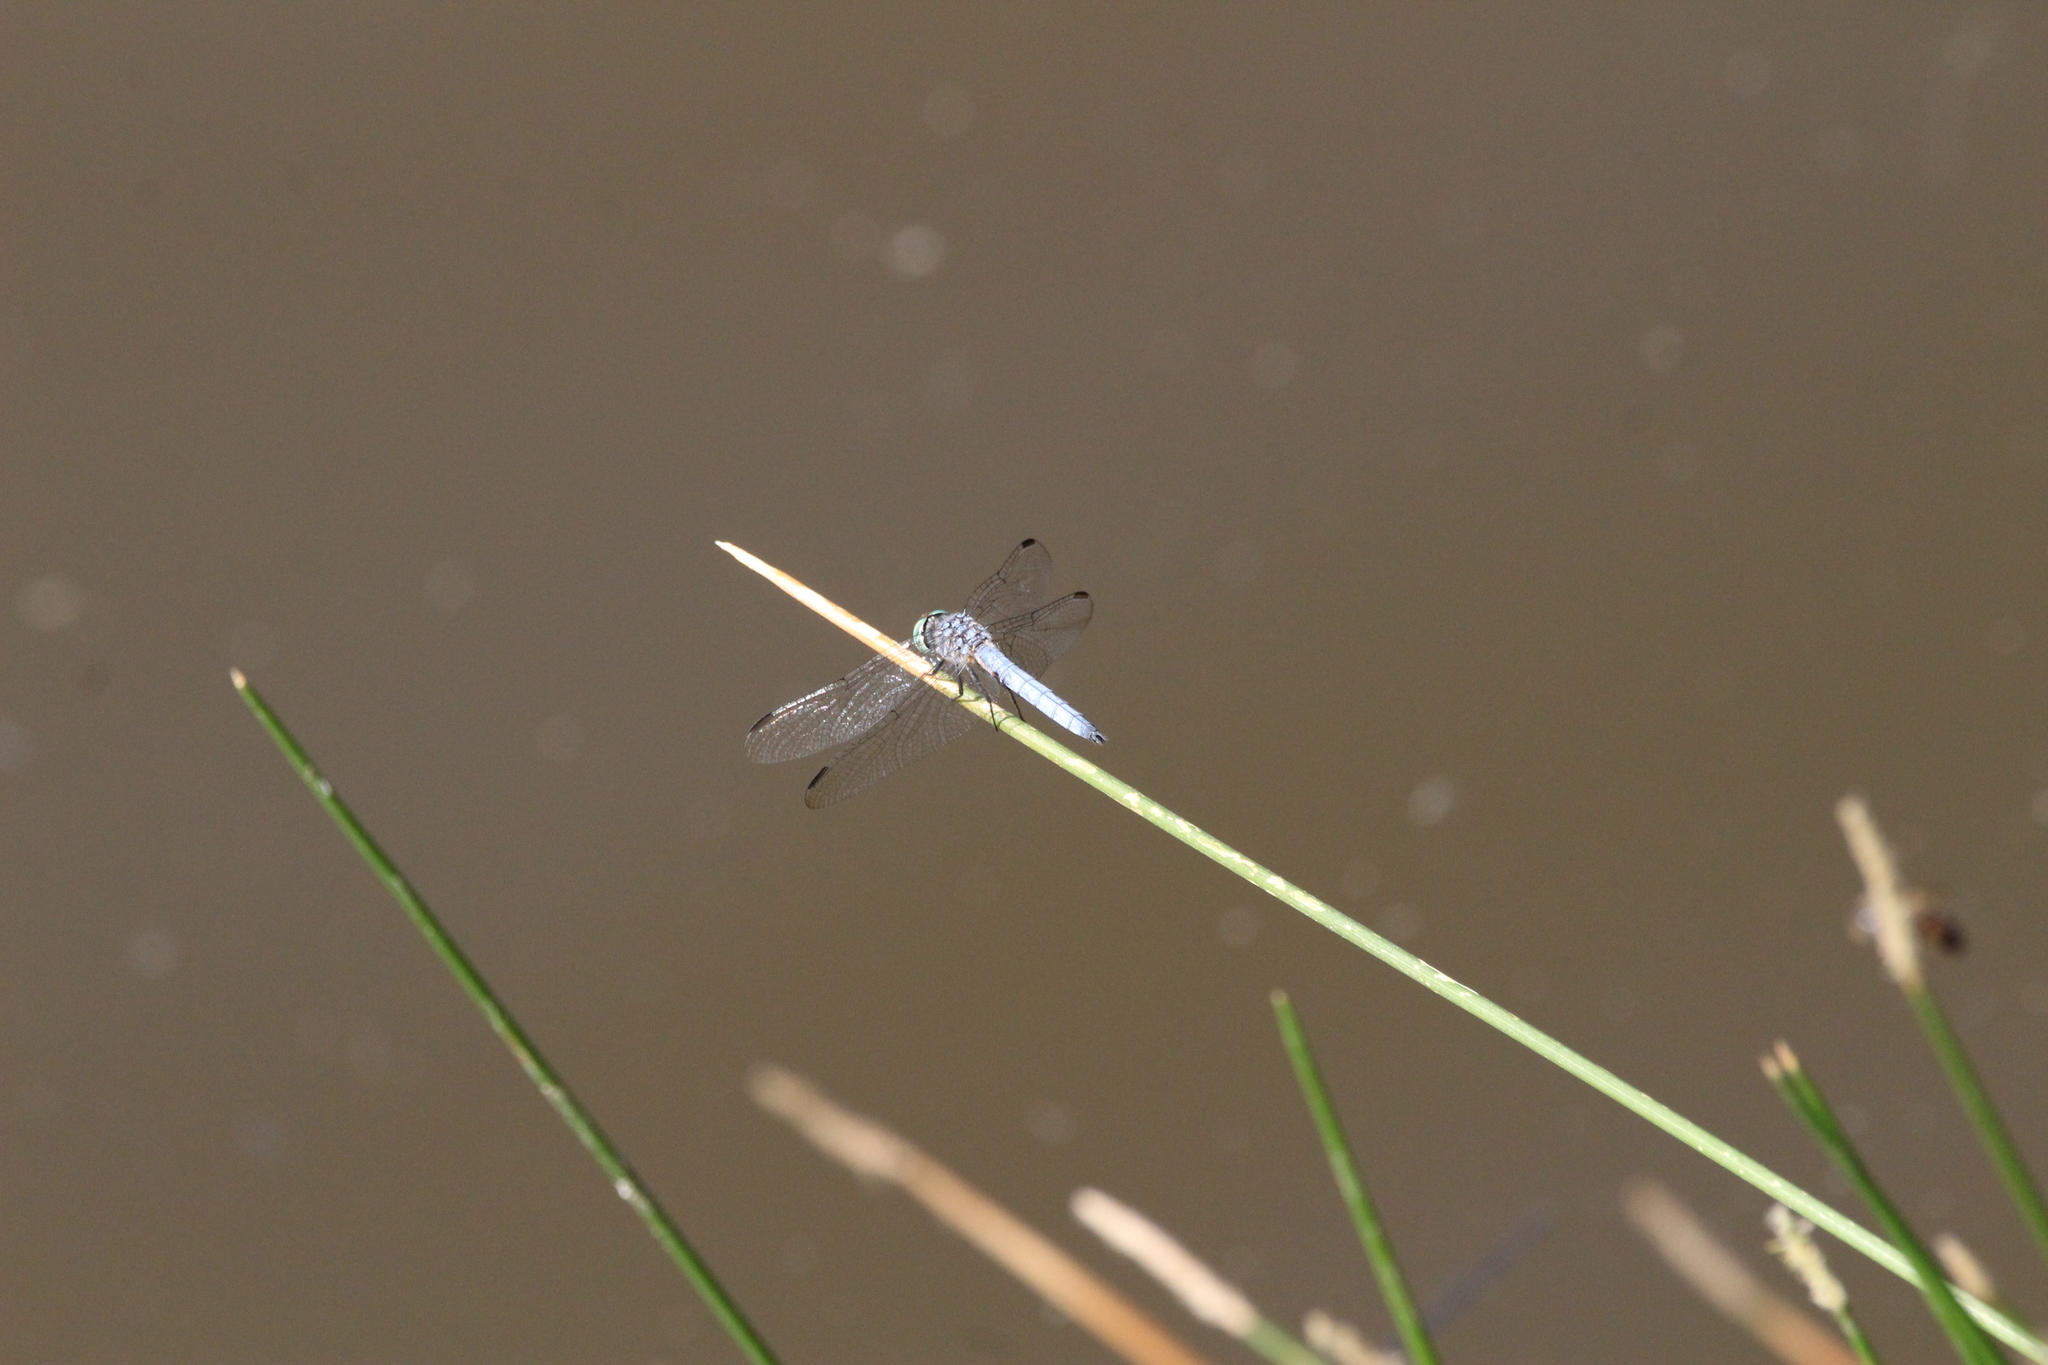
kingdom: Animalia
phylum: Arthropoda
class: Insecta
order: Odonata
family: Libellulidae
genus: Pachydiplax
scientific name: Pachydiplax longipennis
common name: Blue dasher
